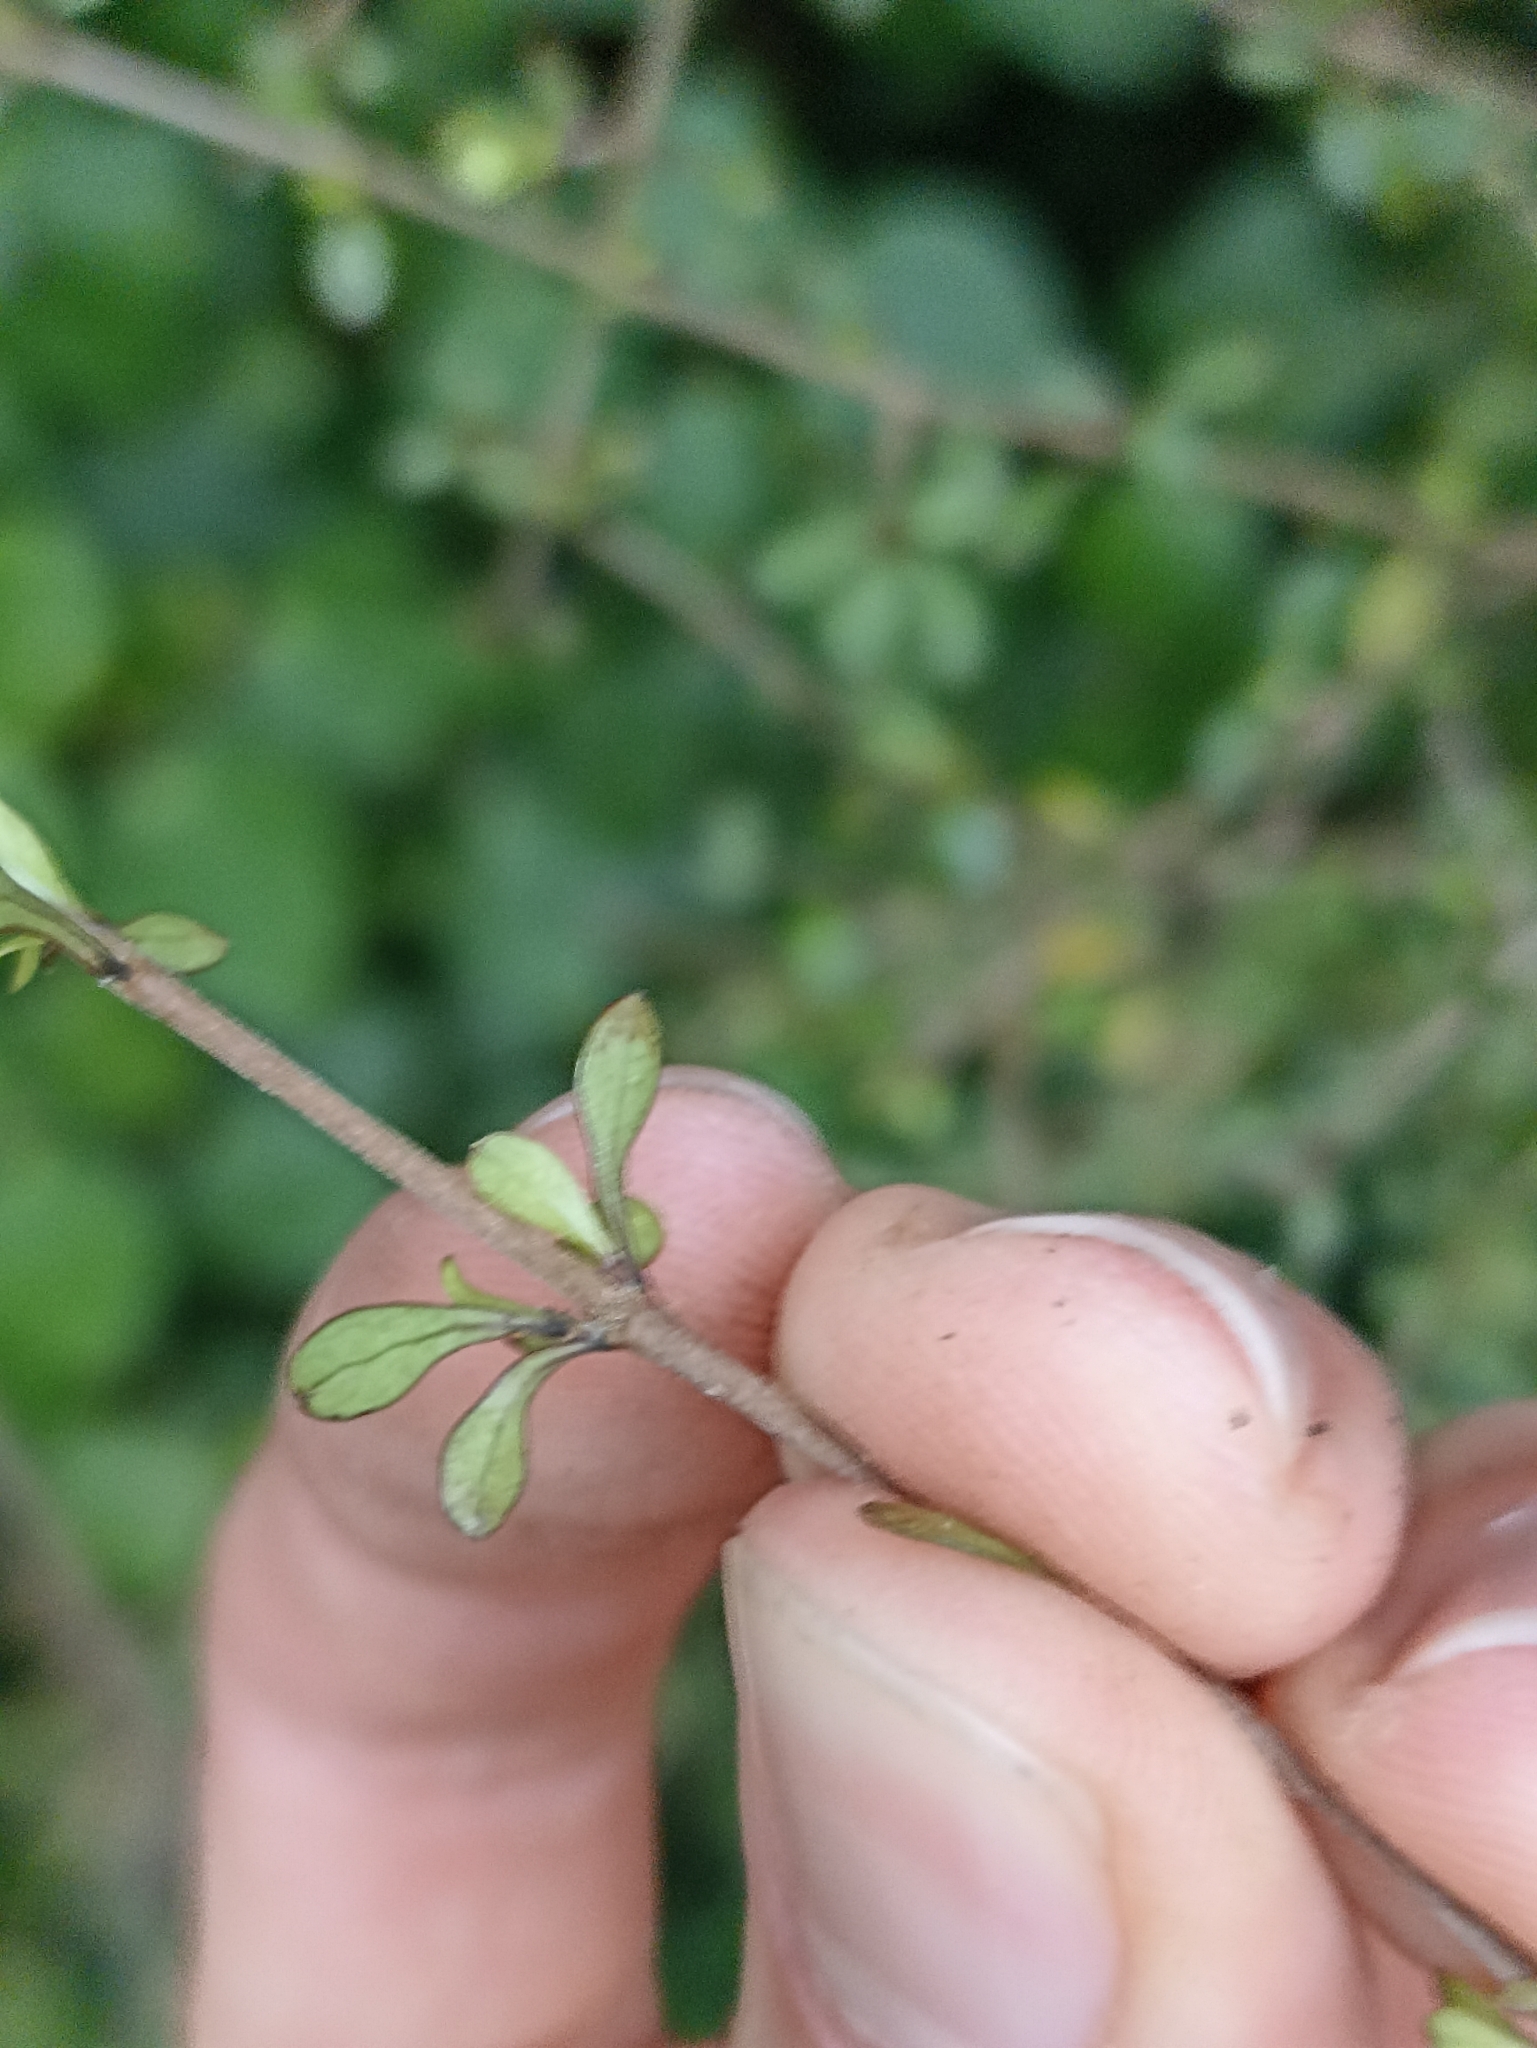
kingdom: Plantae
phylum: Tracheophyta
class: Magnoliopsida
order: Gentianales
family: Rubiaceae
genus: Coprosma
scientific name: Coprosma rigida
